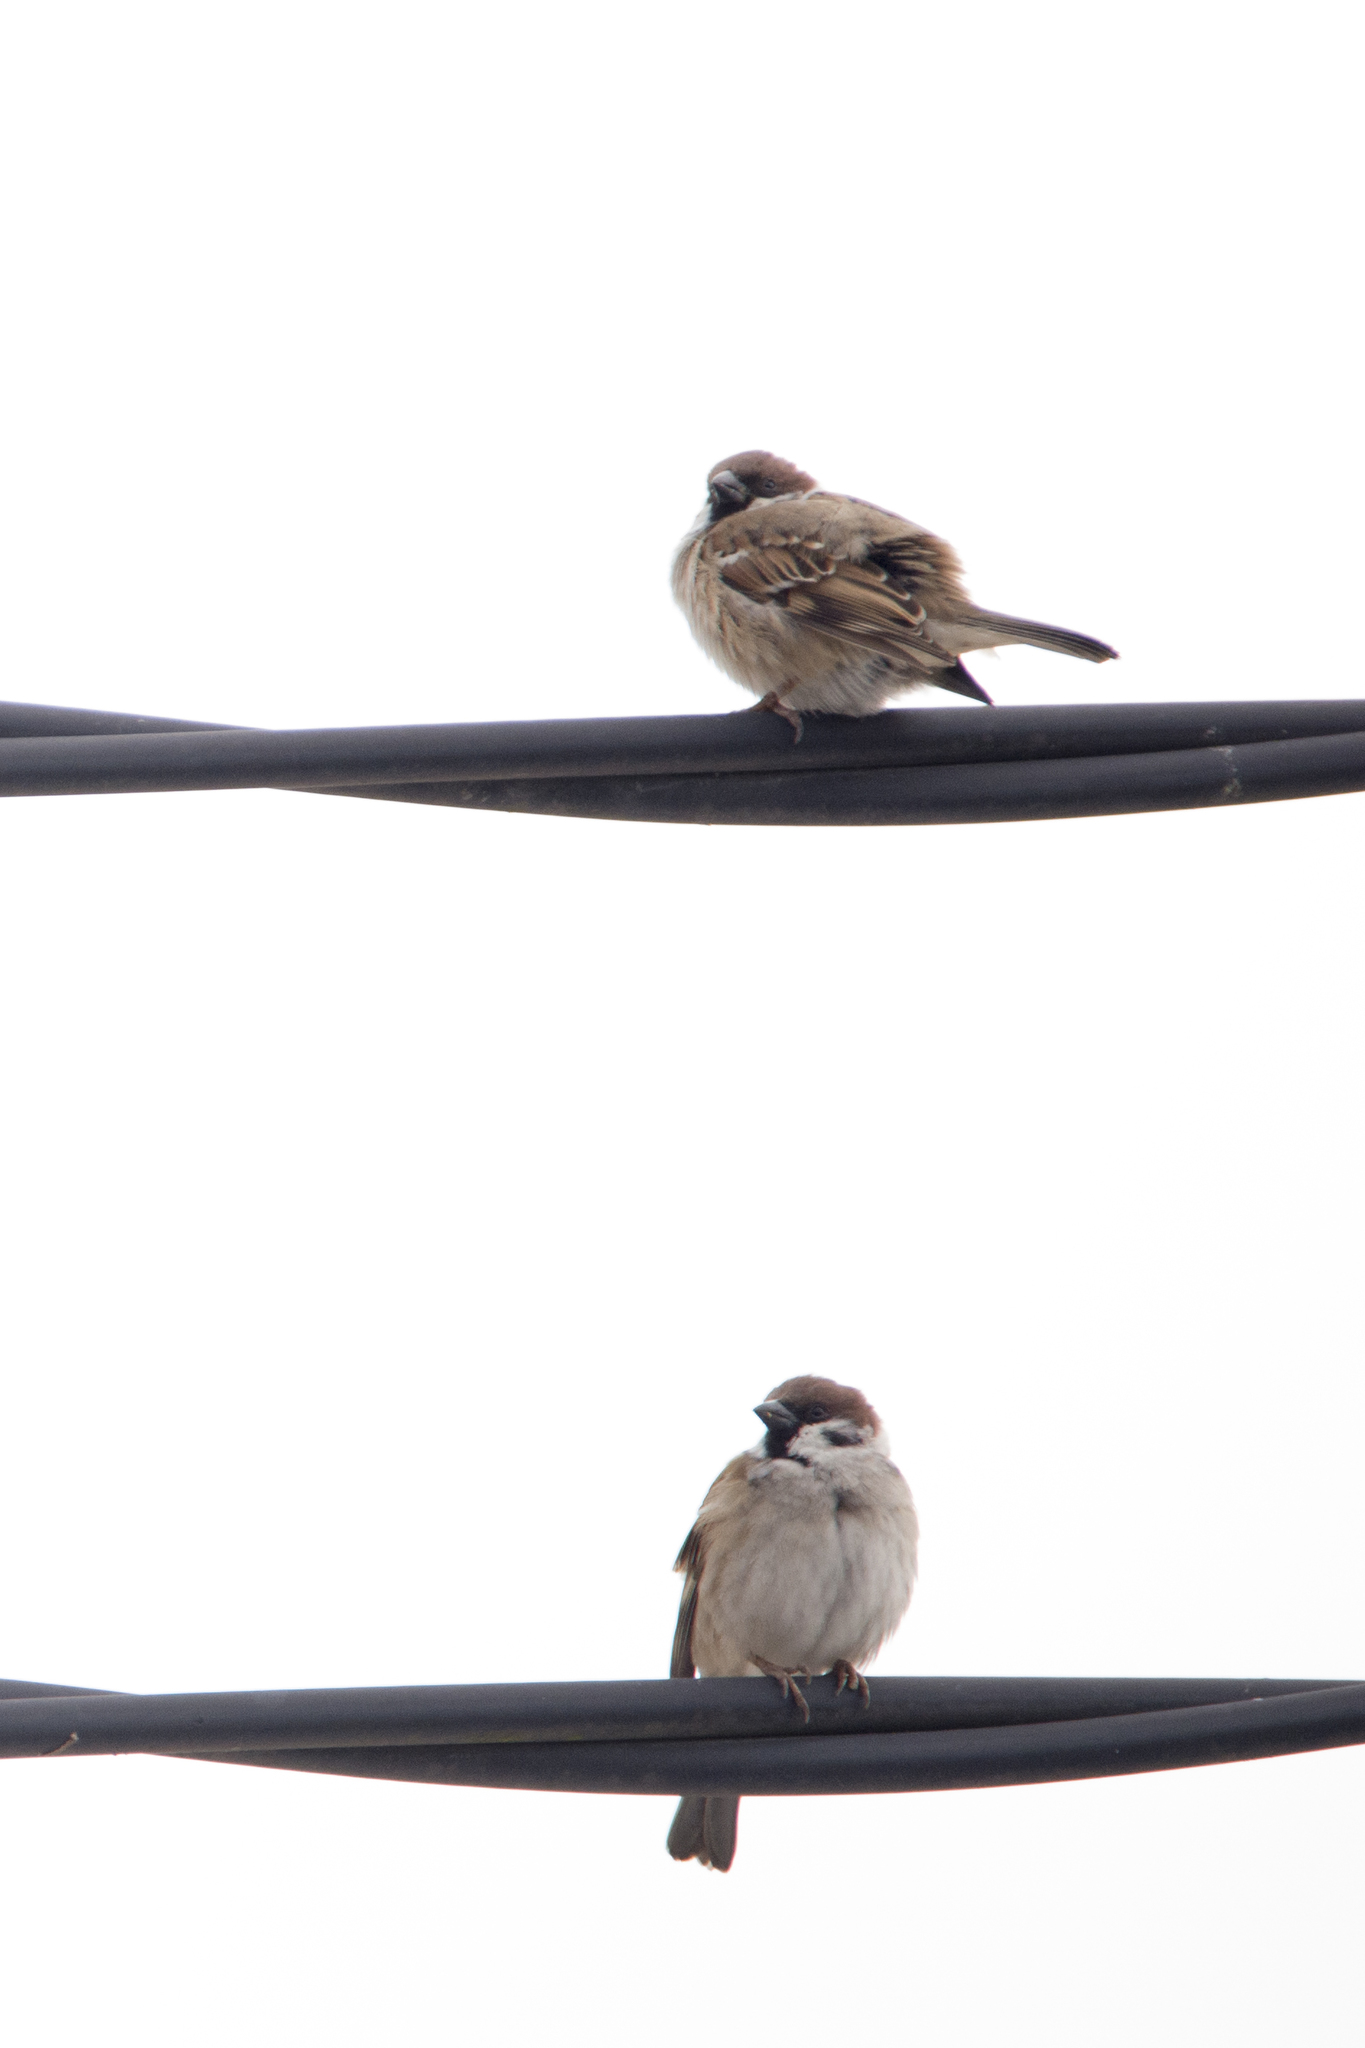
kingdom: Animalia
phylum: Chordata
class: Aves
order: Passeriformes
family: Passeridae
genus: Passer
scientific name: Passer montanus
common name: Eurasian tree sparrow
